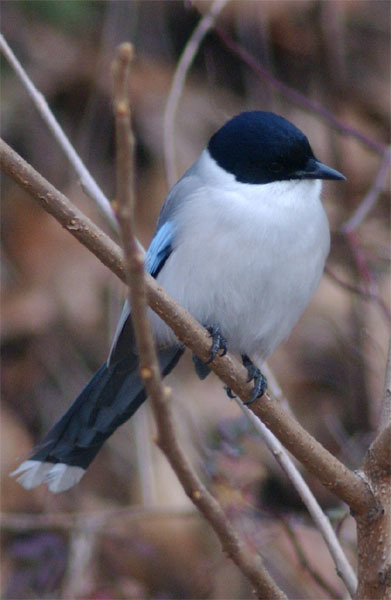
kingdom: Animalia
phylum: Chordata
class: Aves
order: Passeriformes
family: Corvidae
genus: Cyanopica
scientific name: Cyanopica cyanus
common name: Azure-winged magpie
